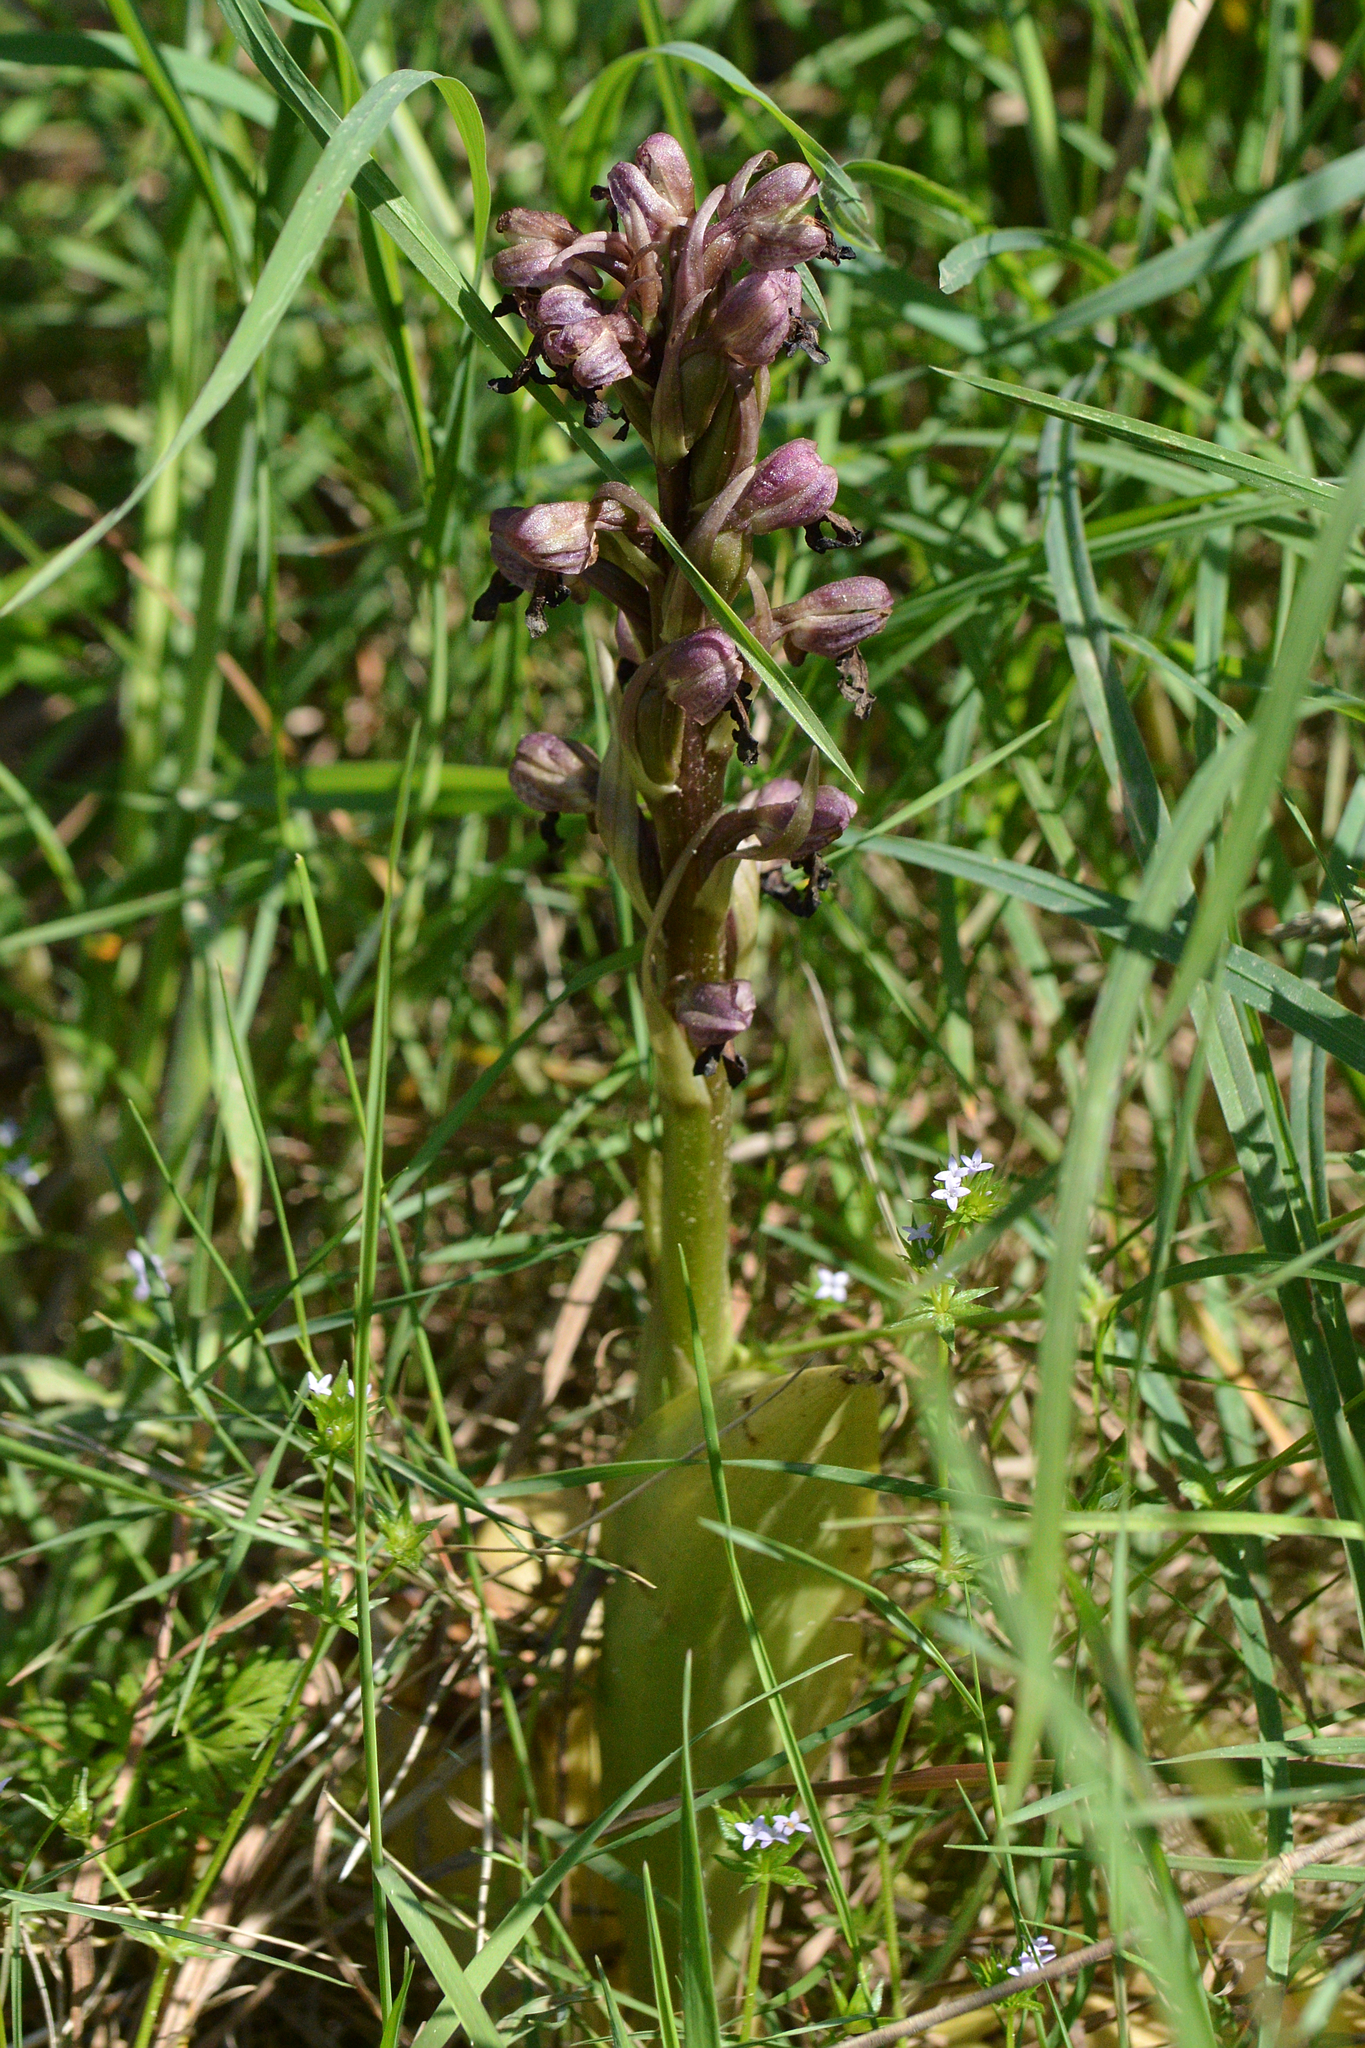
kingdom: Plantae
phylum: Tracheophyta
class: Liliopsida
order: Asparagales
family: Orchidaceae
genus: Himantoglossum
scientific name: Himantoglossum robertianum
